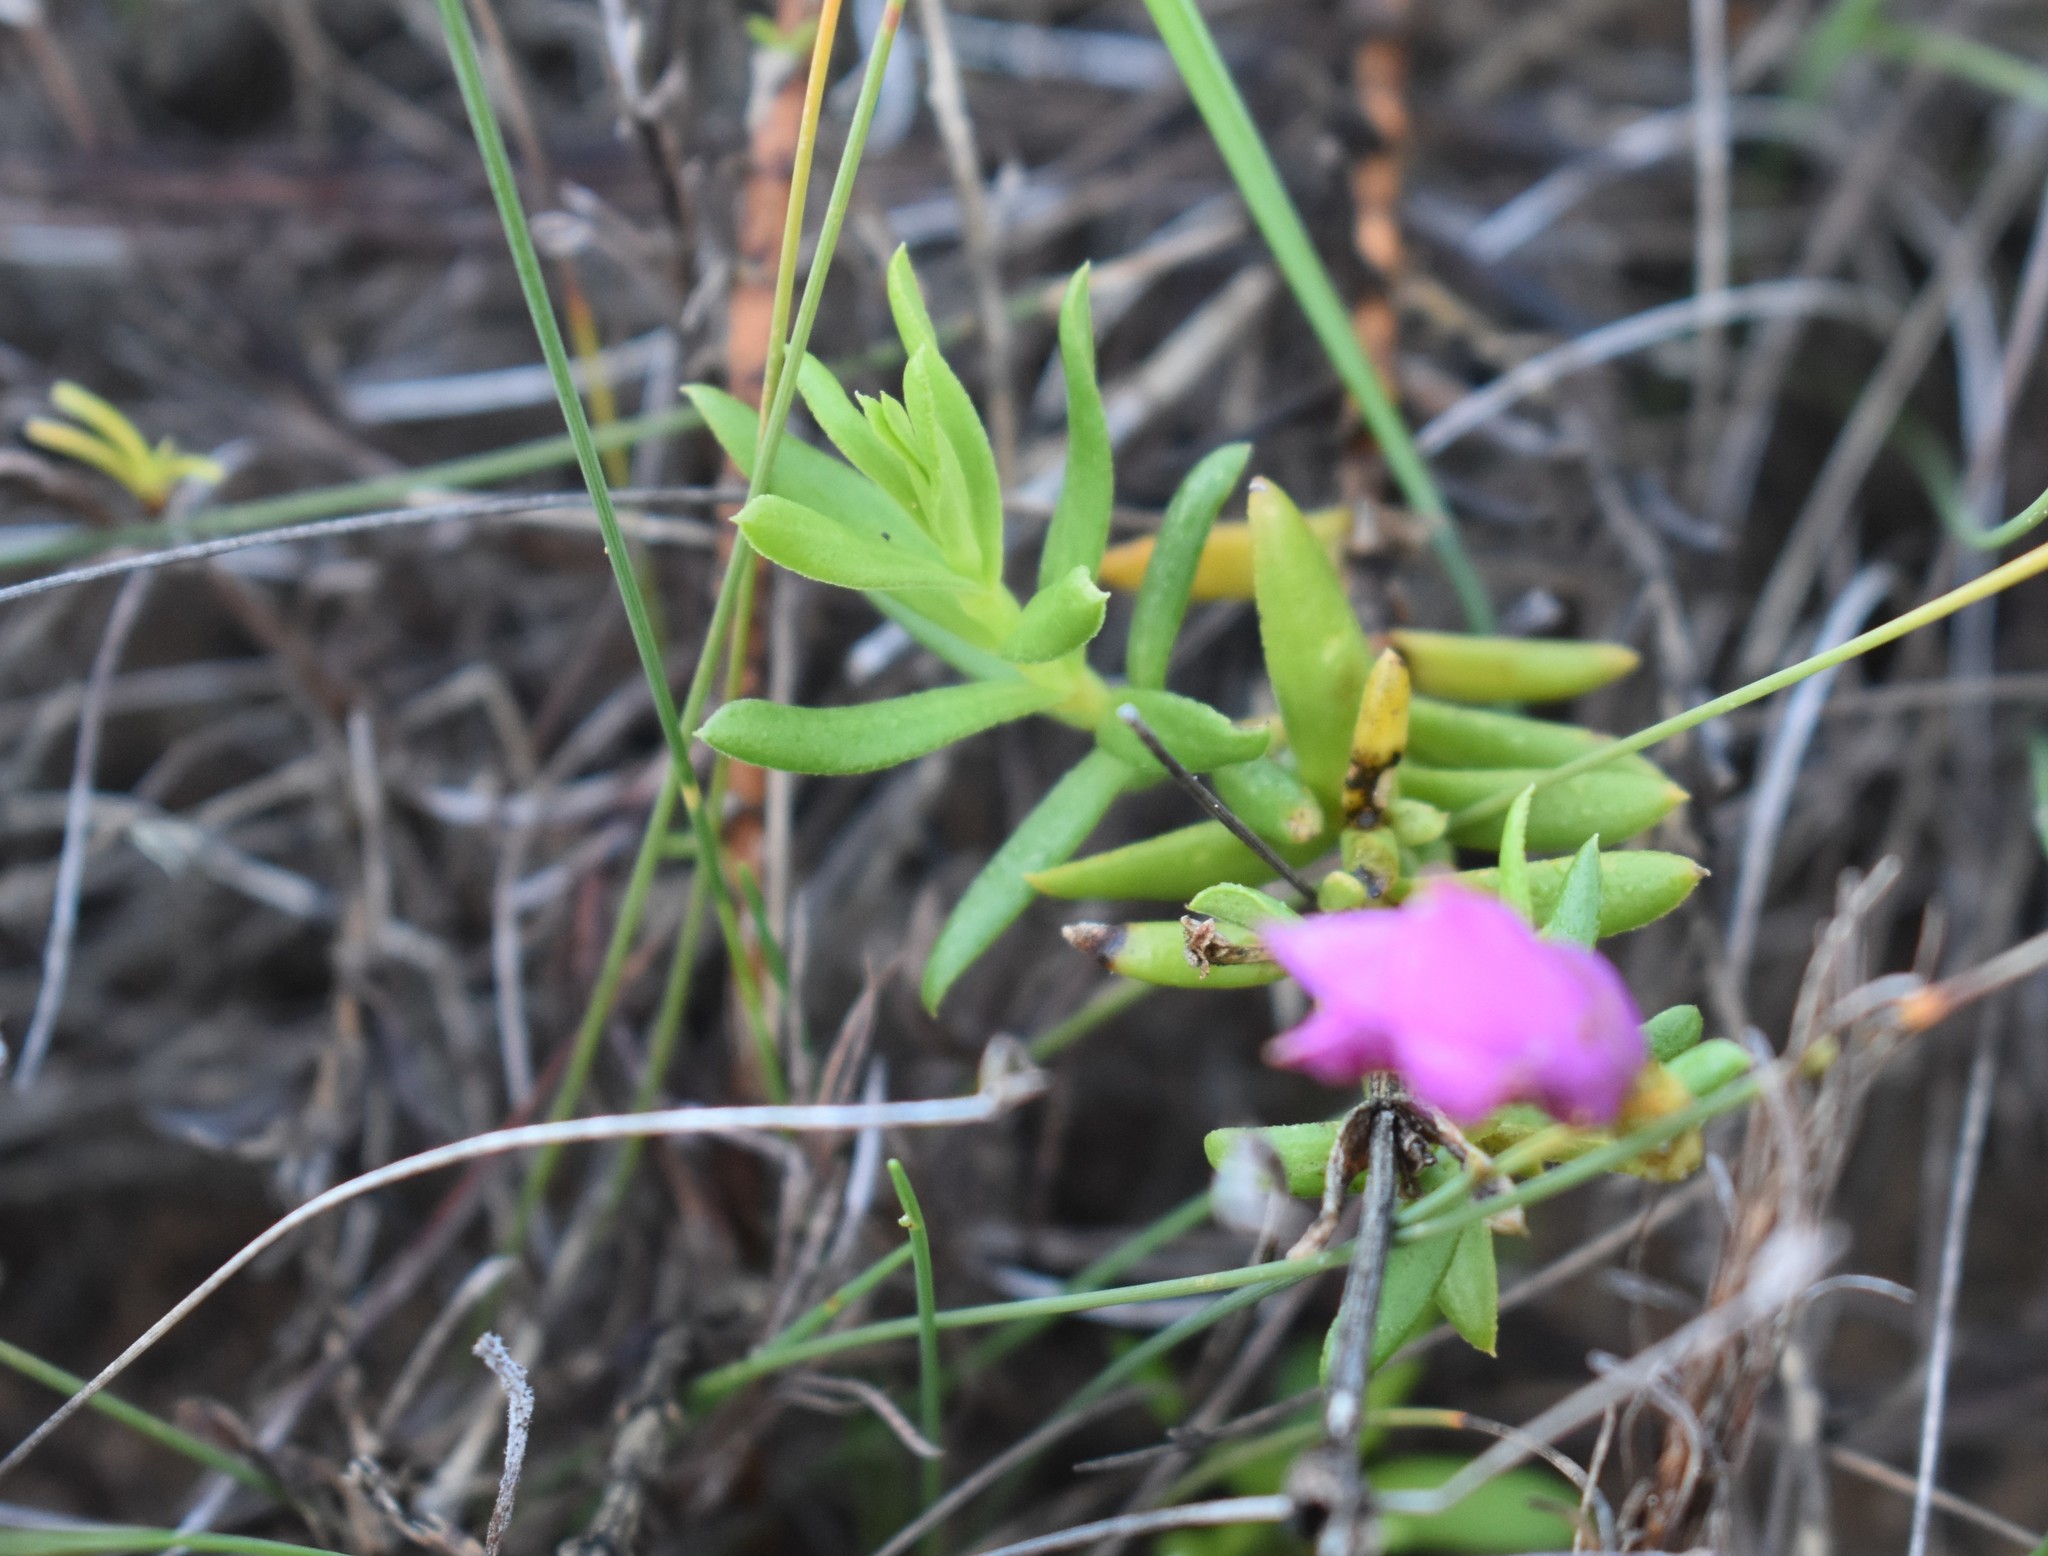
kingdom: Plantae
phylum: Tracheophyta
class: Magnoliopsida
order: Gentianales
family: Gentianaceae
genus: Chironia
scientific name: Chironia tetragona
